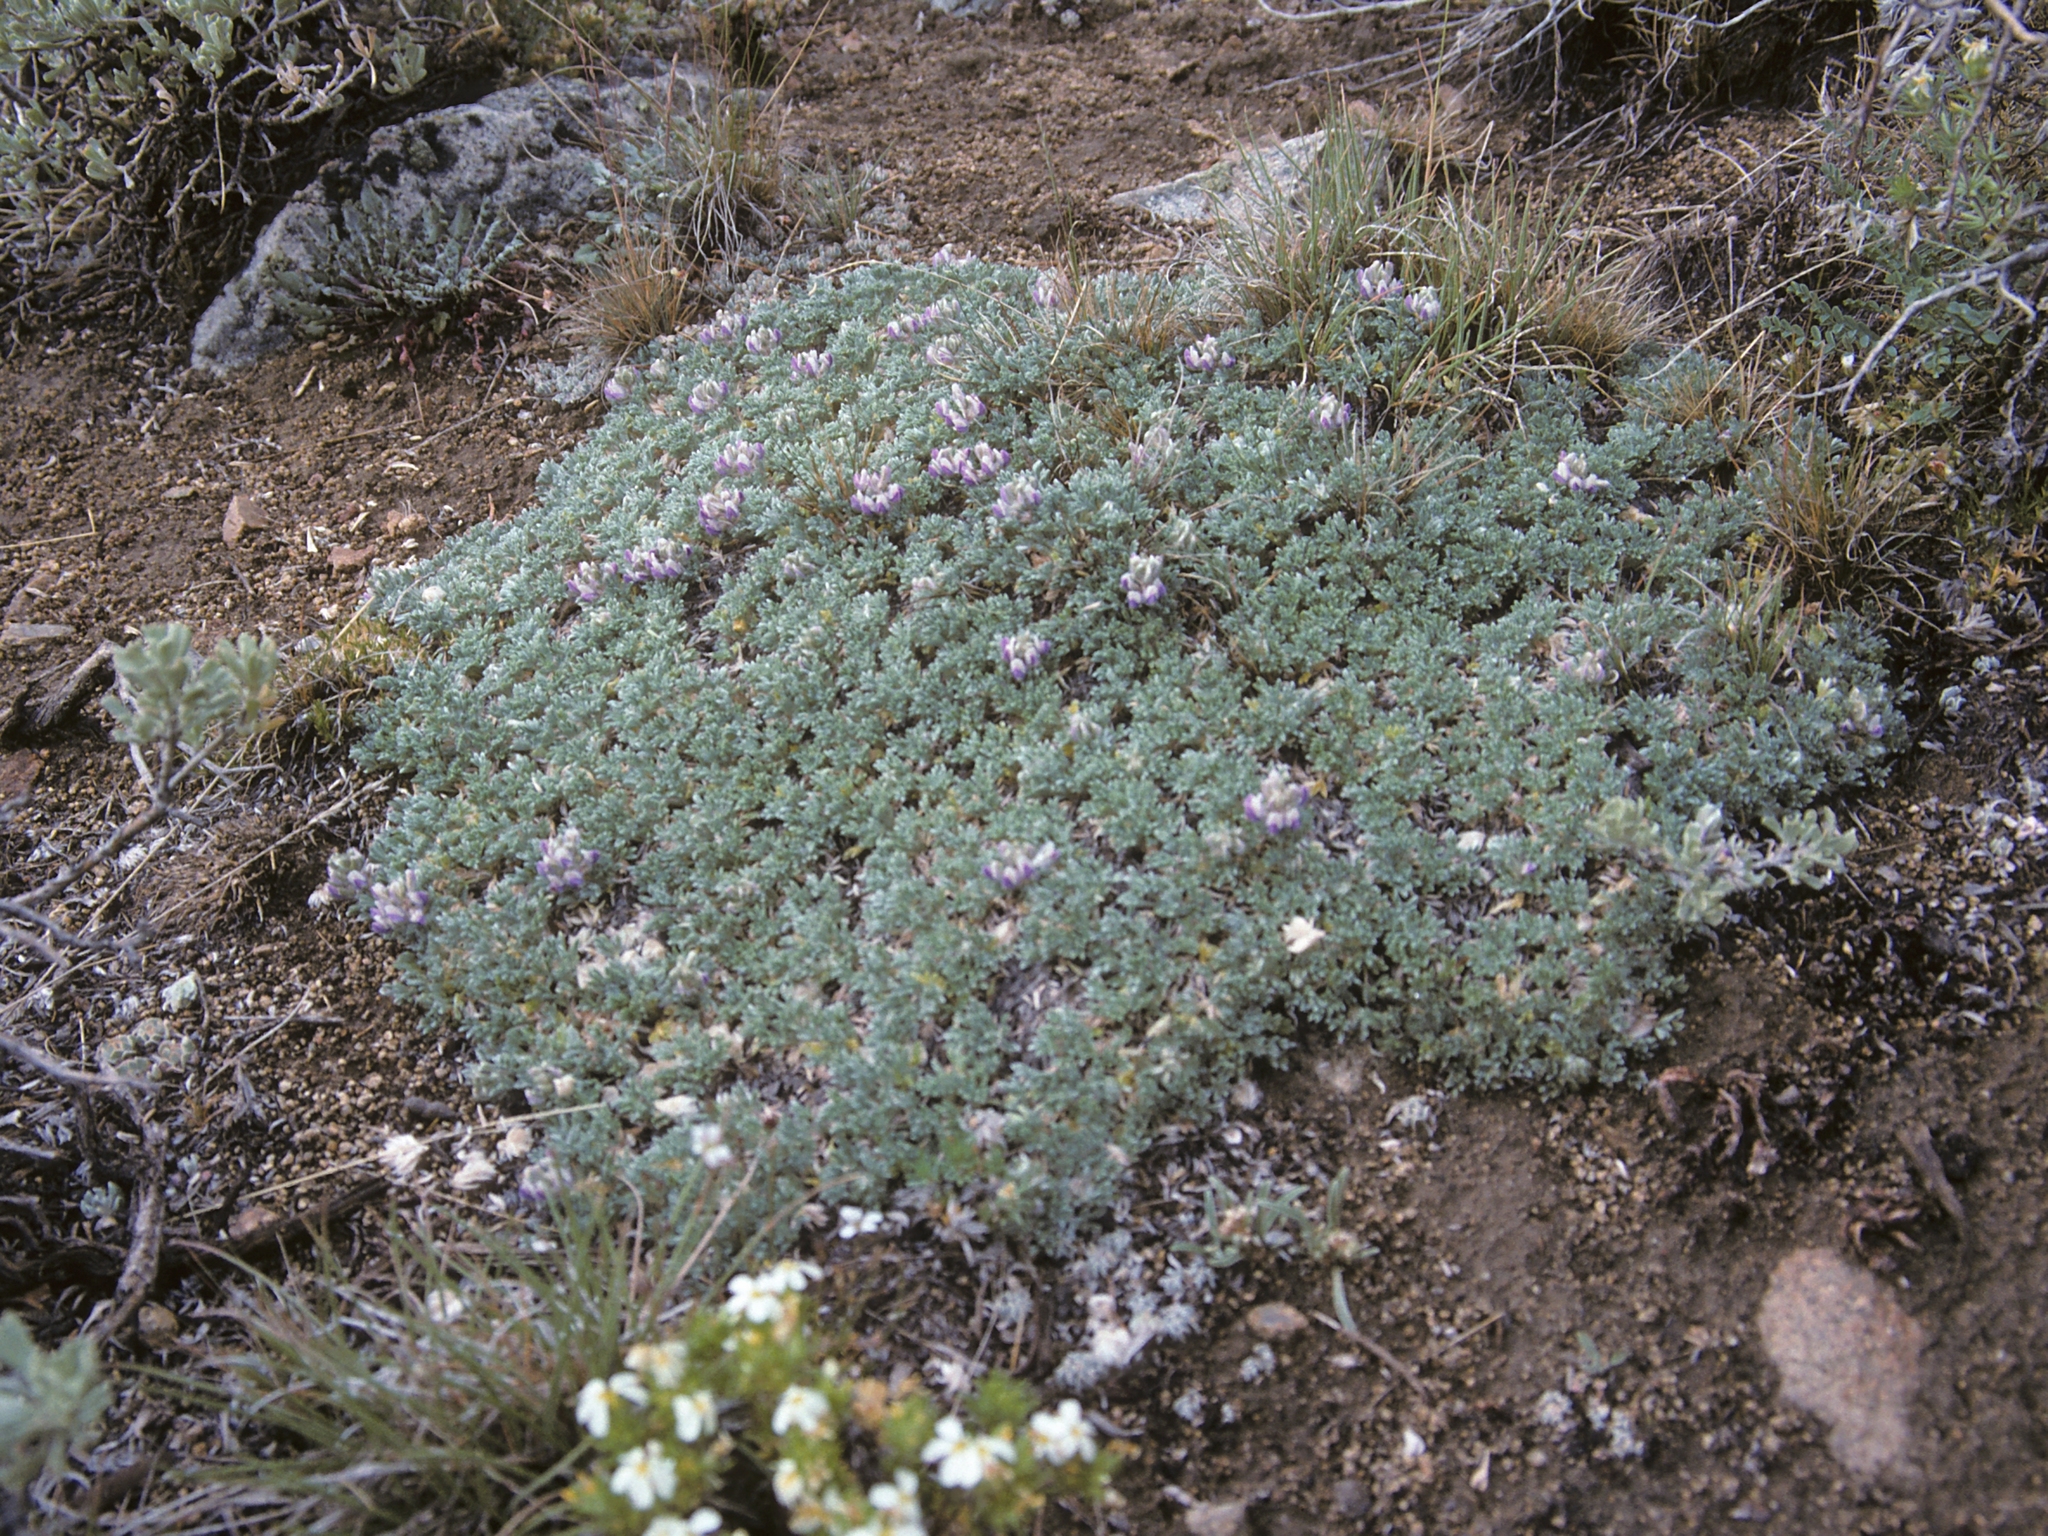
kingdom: Plantae
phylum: Tracheophyta
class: Magnoliopsida
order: Fabales
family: Fabaceae
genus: Lupinus
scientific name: Lupinus breweri
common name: Brewer's lupine
